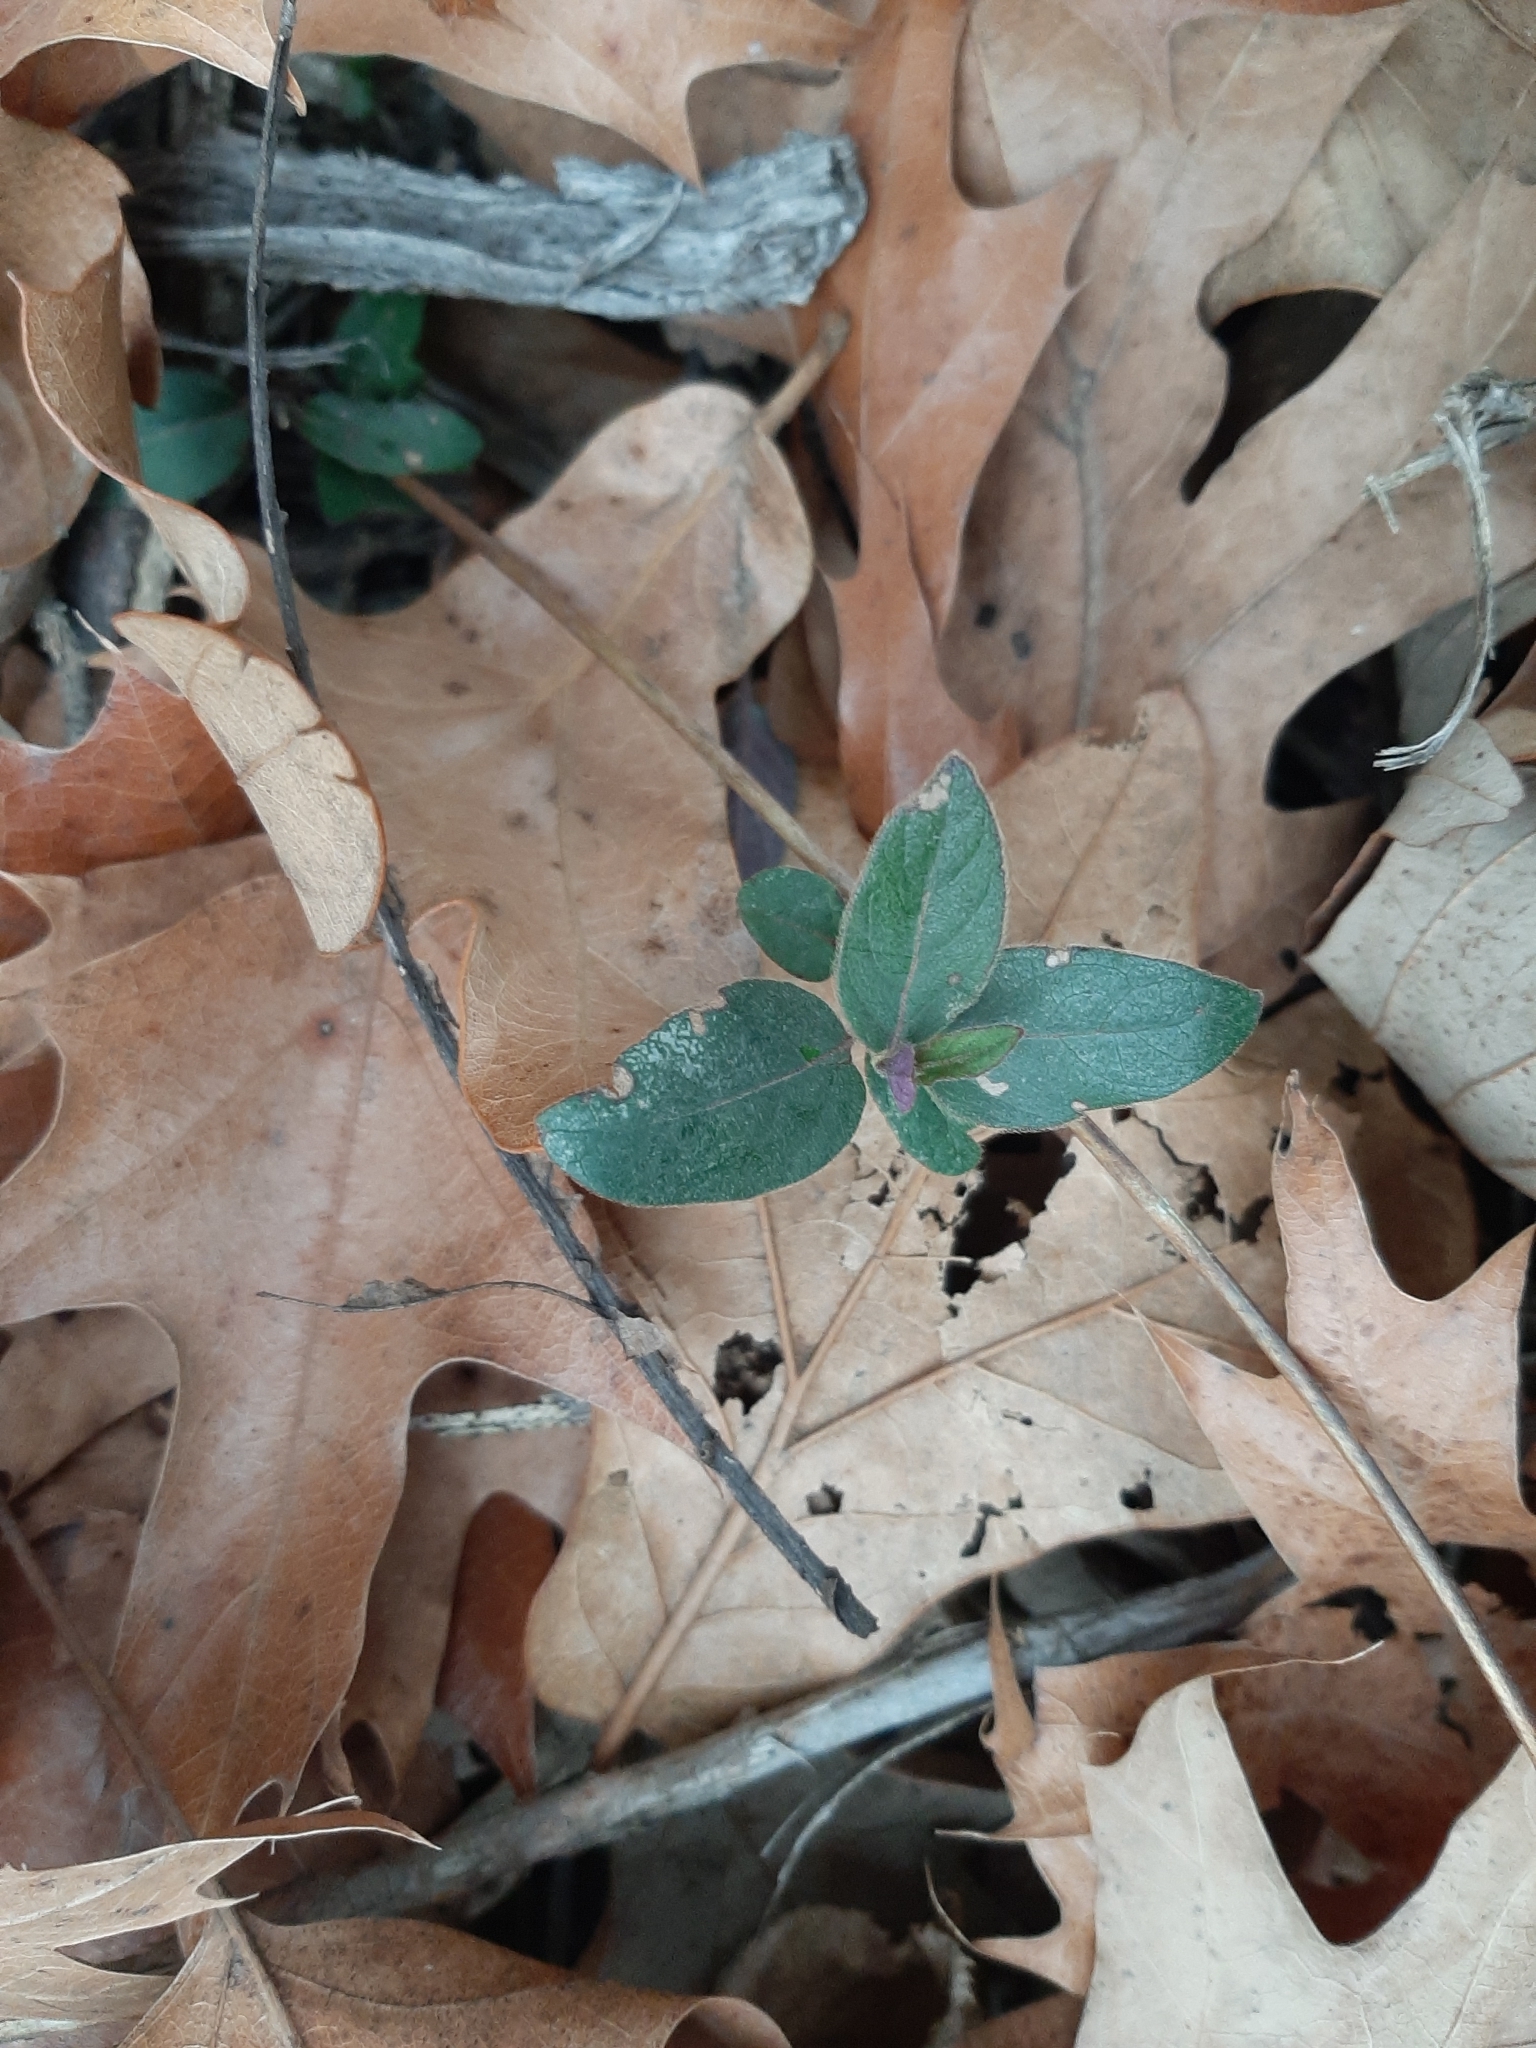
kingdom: Plantae
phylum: Tracheophyta
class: Magnoliopsida
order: Dipsacales
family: Caprifoliaceae
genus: Lonicera
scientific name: Lonicera japonica
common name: Japanese honeysuckle
